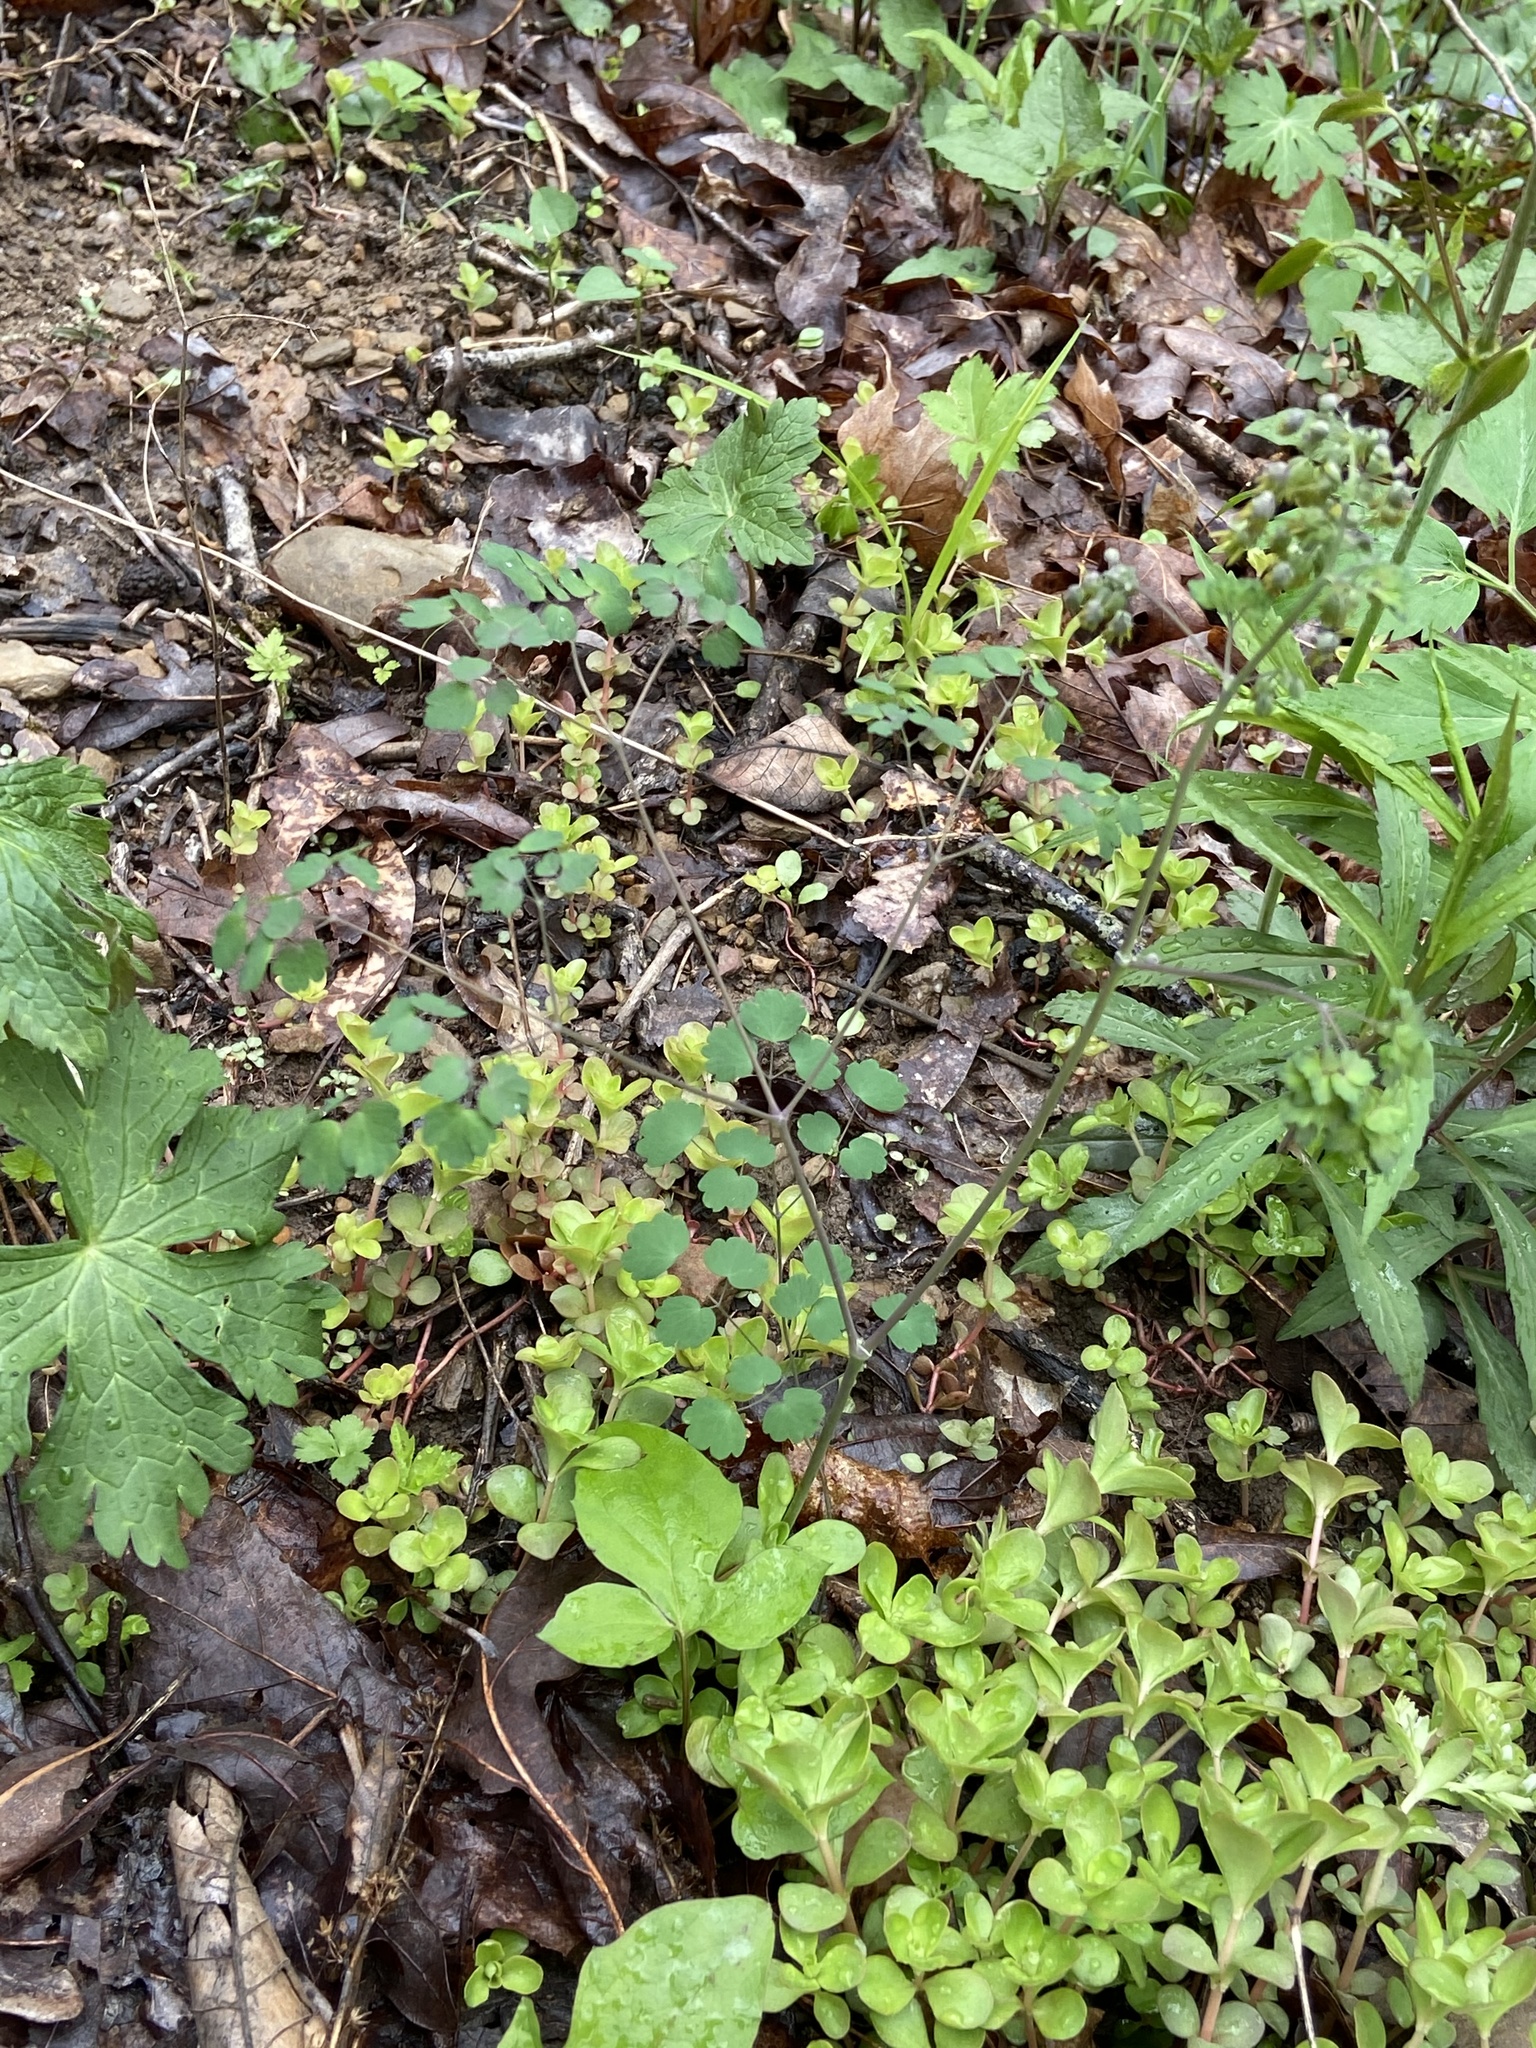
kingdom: Plantae
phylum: Tracheophyta
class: Magnoliopsida
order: Ranunculales
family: Ranunculaceae
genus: Thalictrum
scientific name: Thalictrum dioicum
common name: Early meadow-rue
